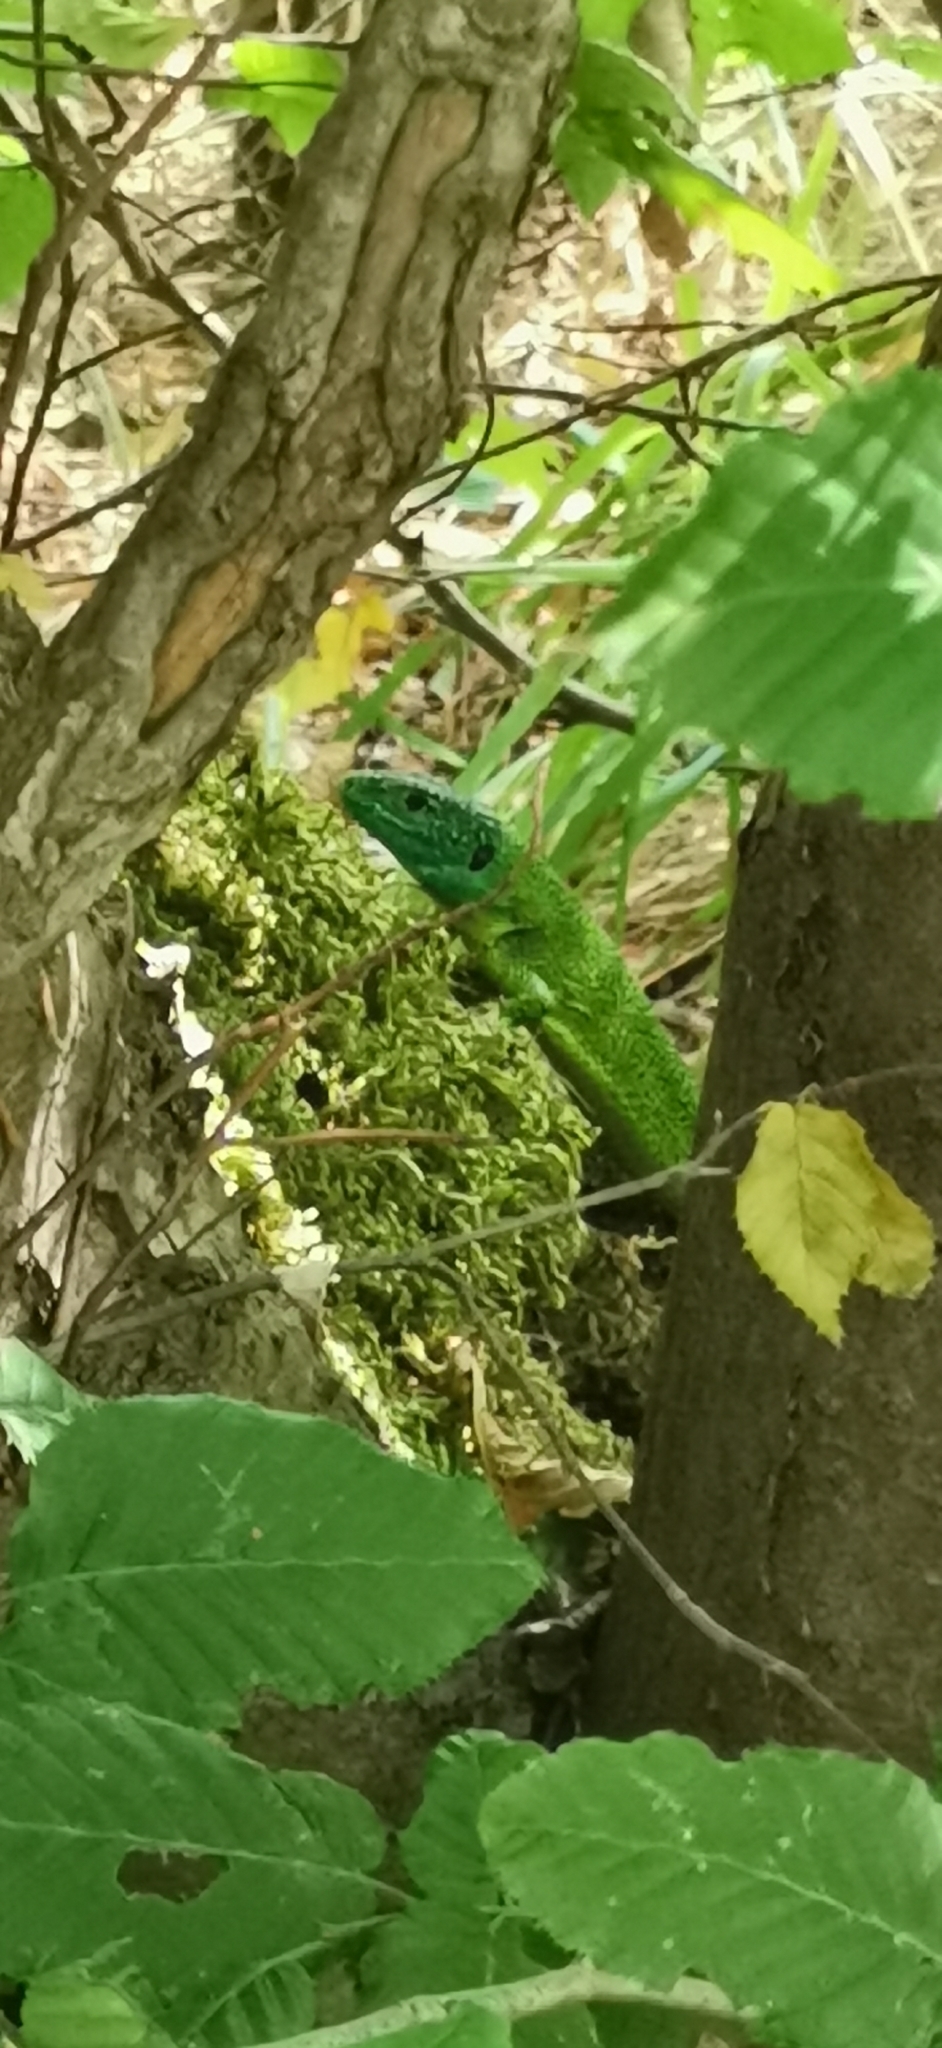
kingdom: Animalia
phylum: Chordata
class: Squamata
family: Lacertidae
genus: Lacerta
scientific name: Lacerta bilineata
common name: Western green lizard
